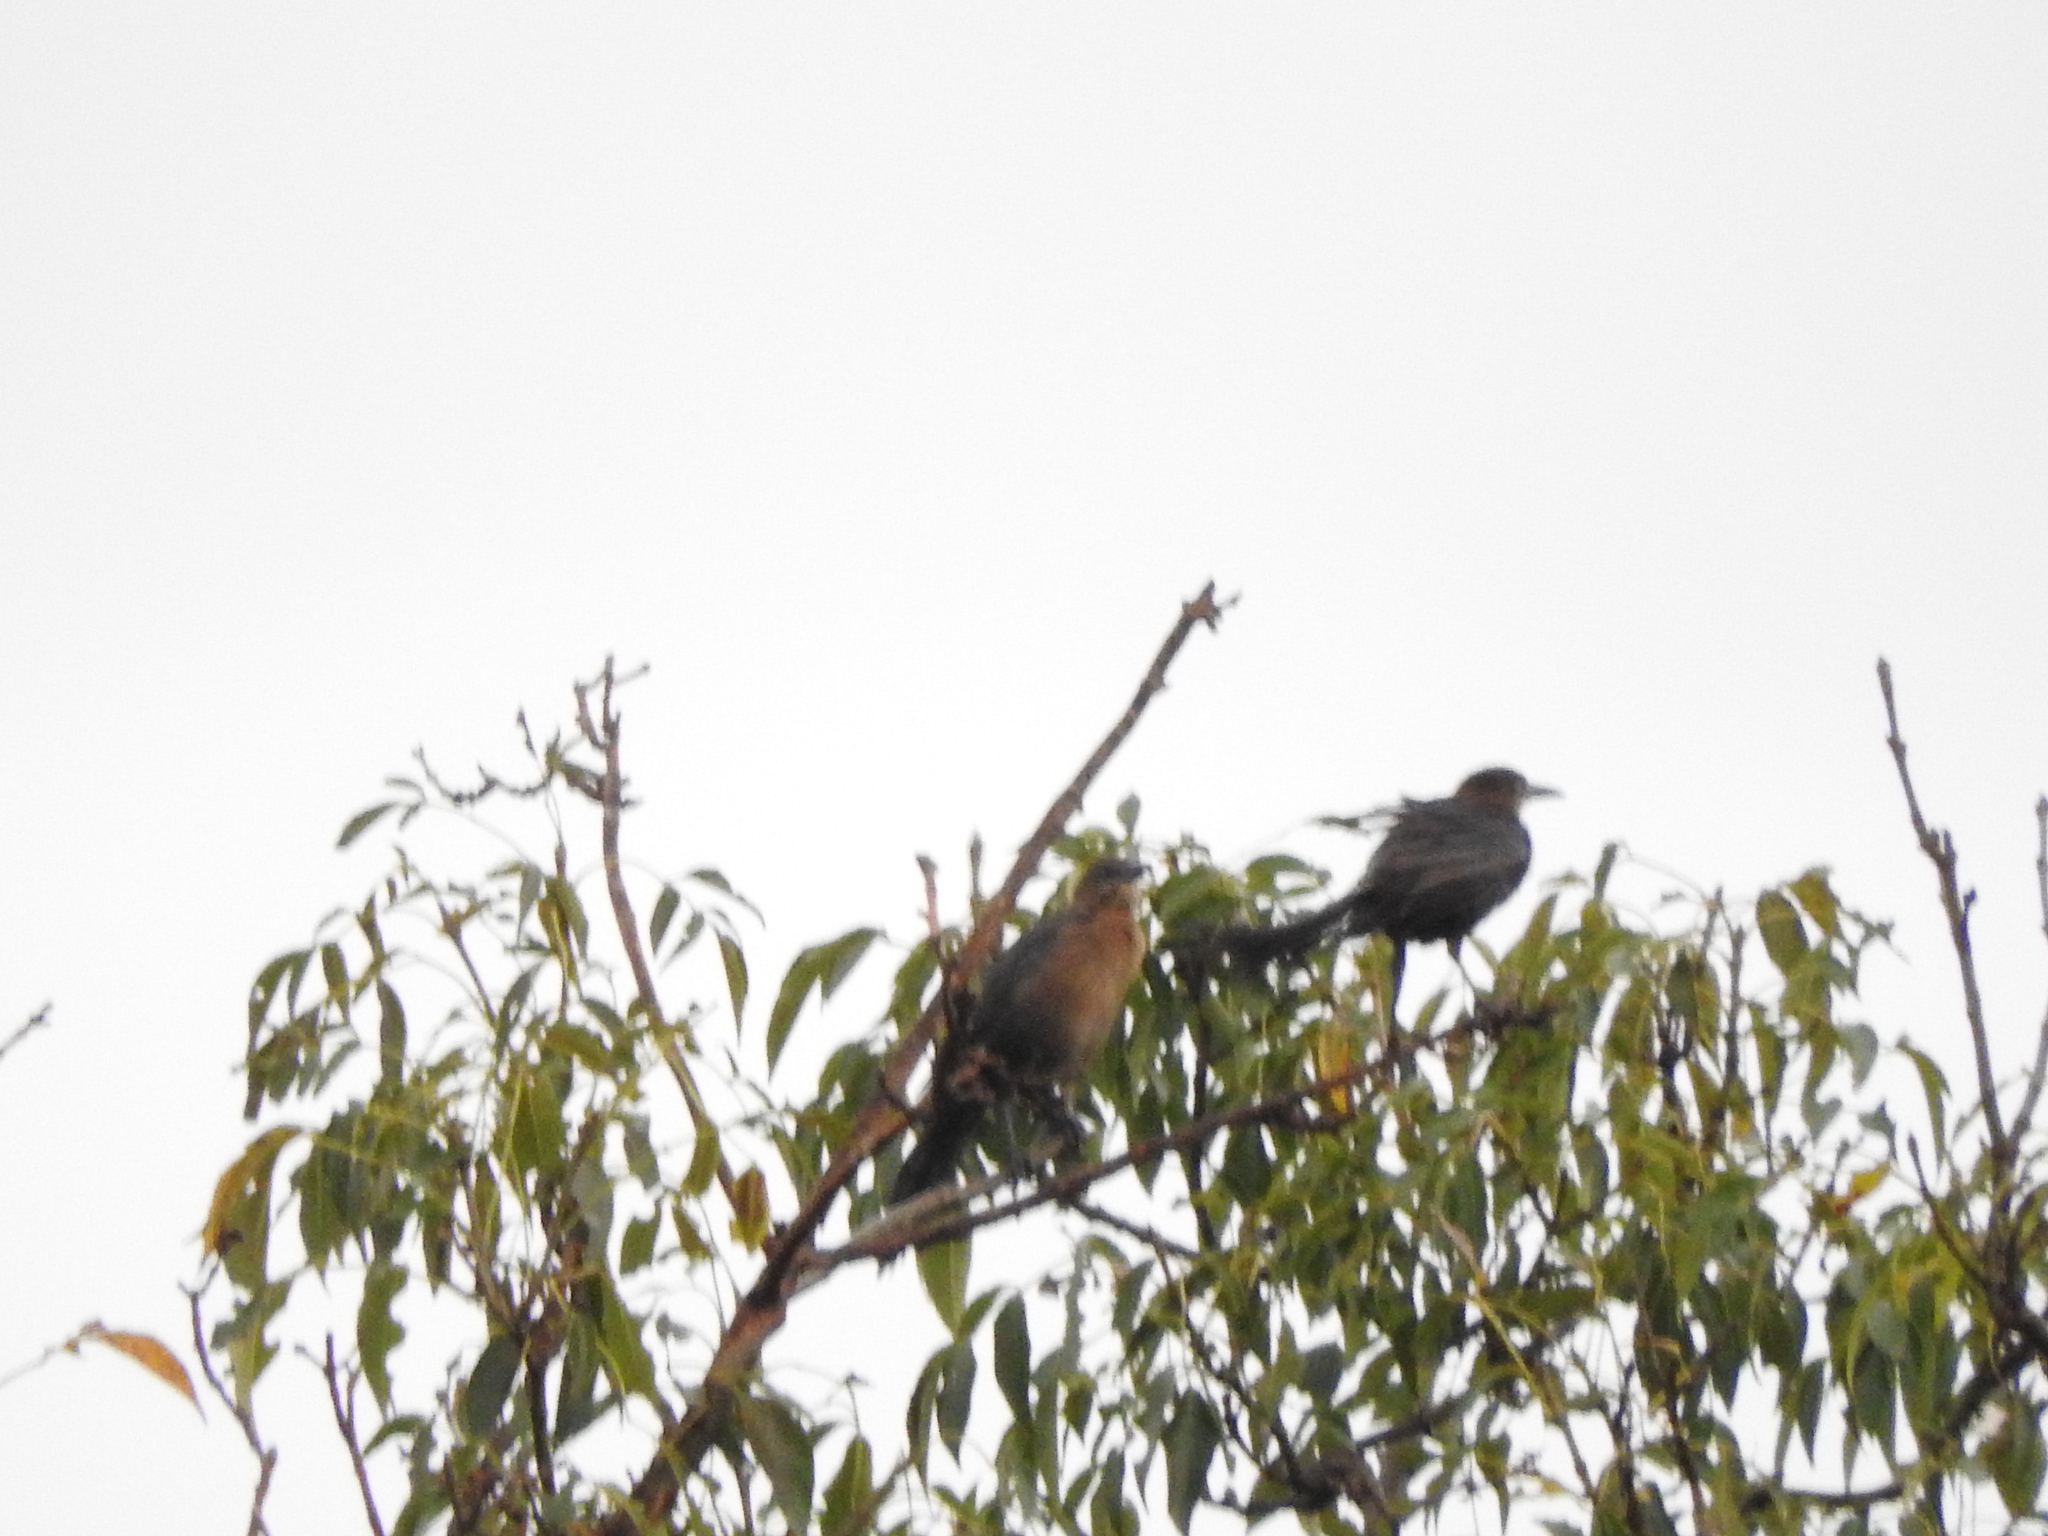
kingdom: Animalia
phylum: Chordata
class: Aves
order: Passeriformes
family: Icteridae
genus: Quiscalus
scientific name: Quiscalus mexicanus
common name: Great-tailed grackle
